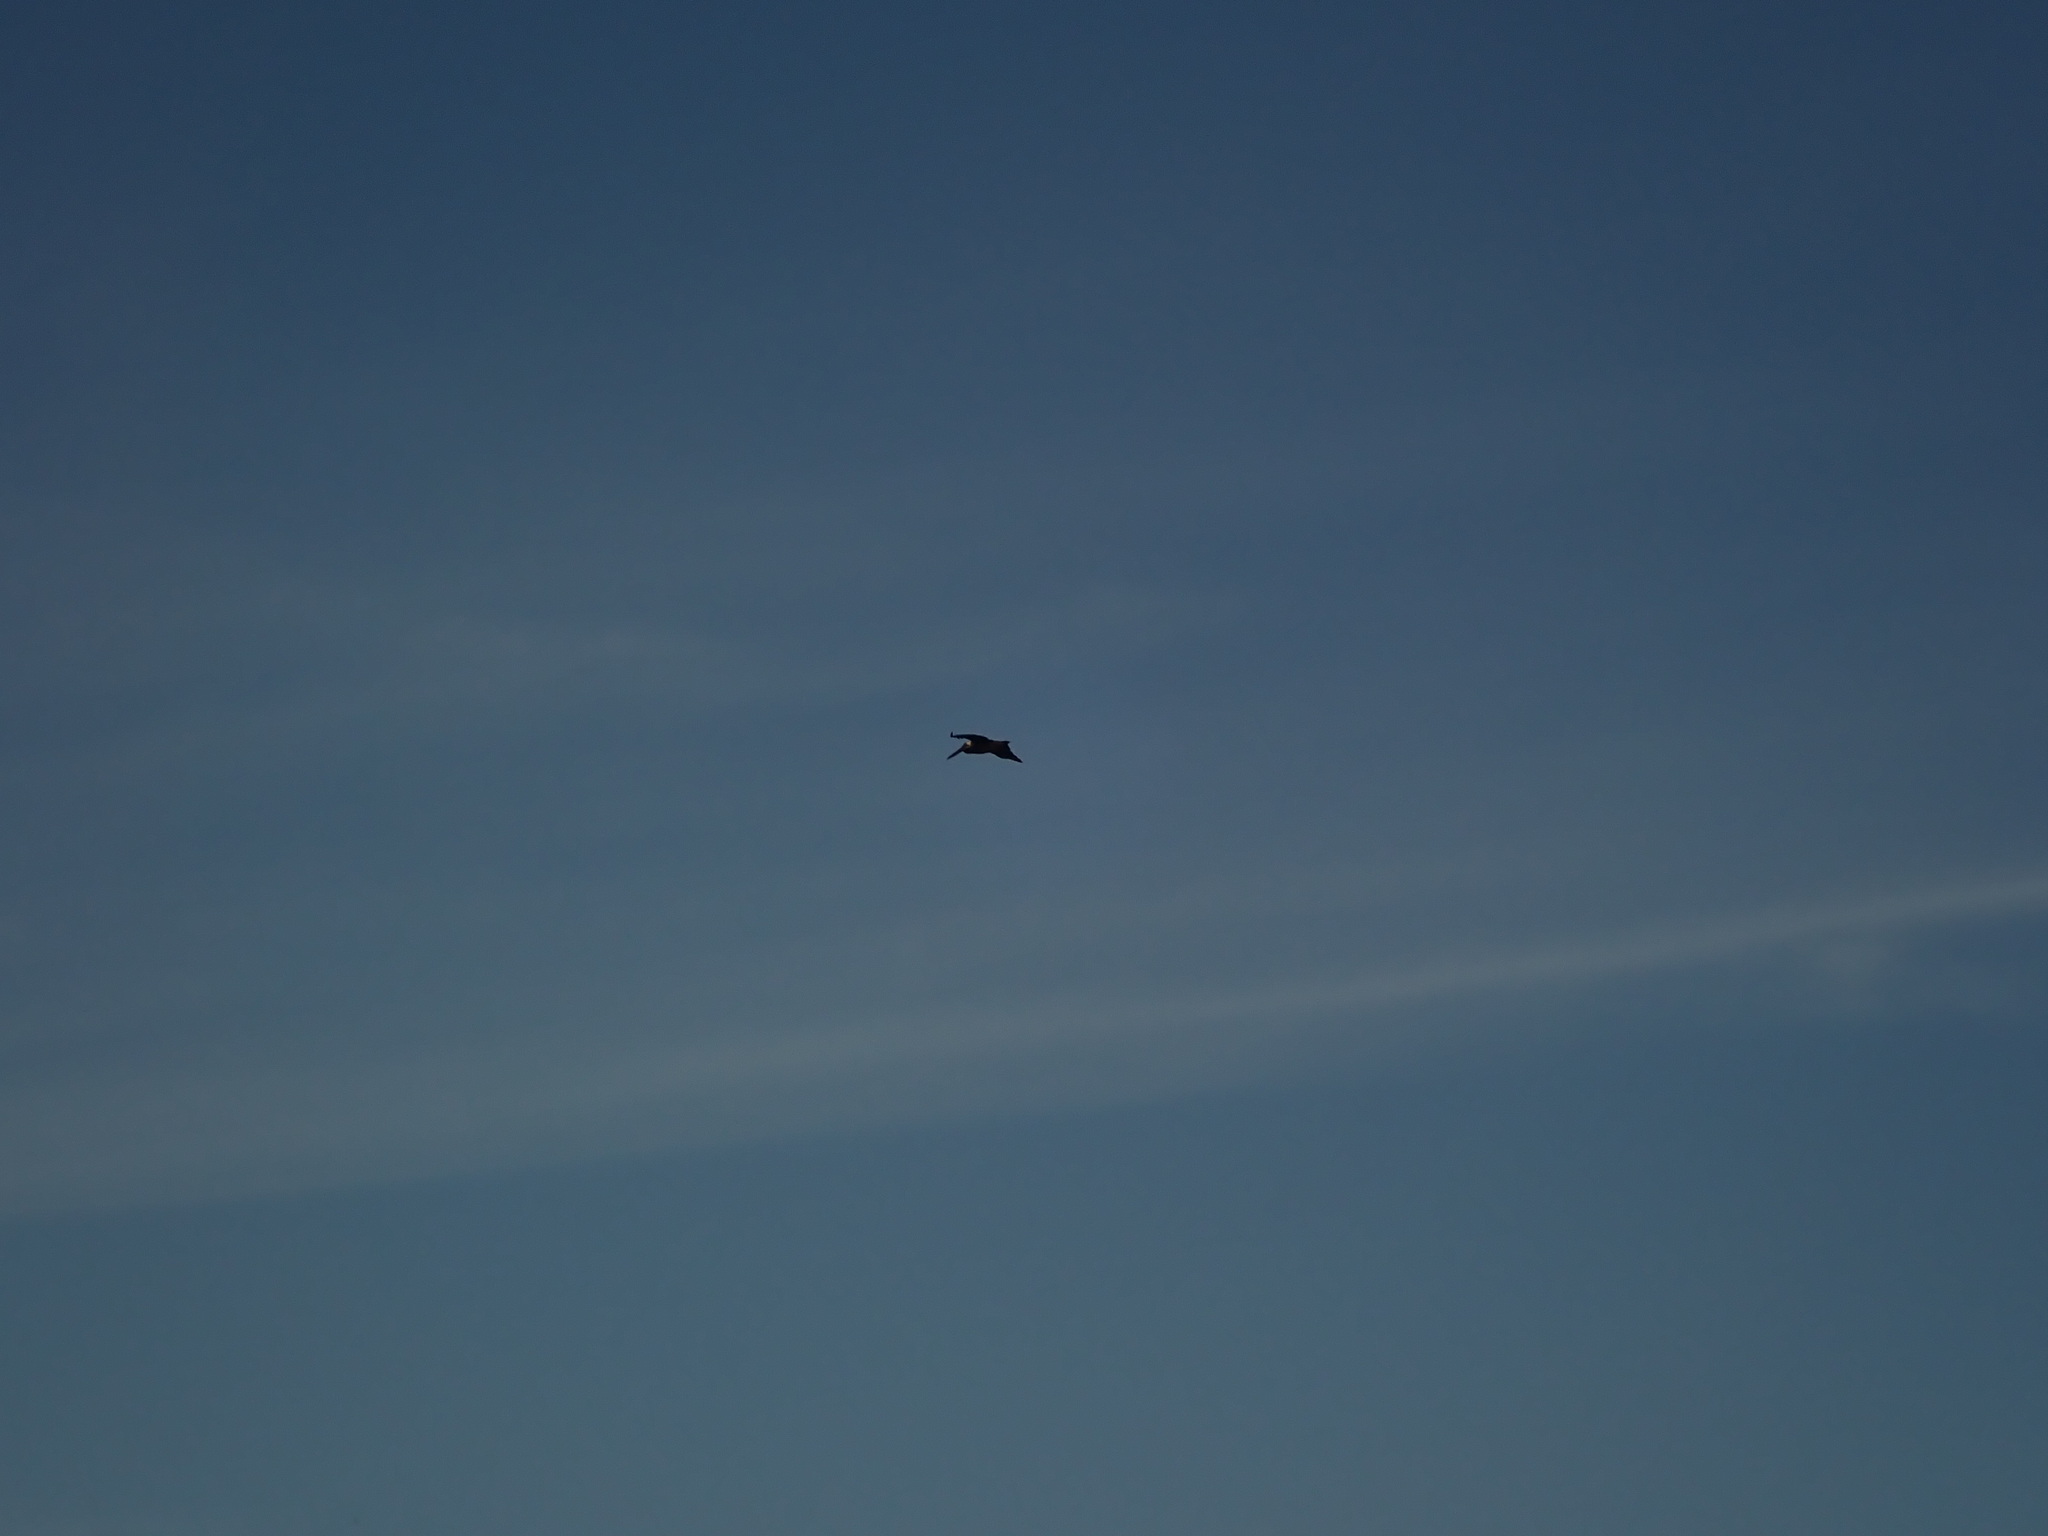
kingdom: Animalia
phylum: Chordata
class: Aves
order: Pelecaniformes
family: Pelecanidae
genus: Pelecanus
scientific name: Pelecanus occidentalis
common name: Brown pelican
